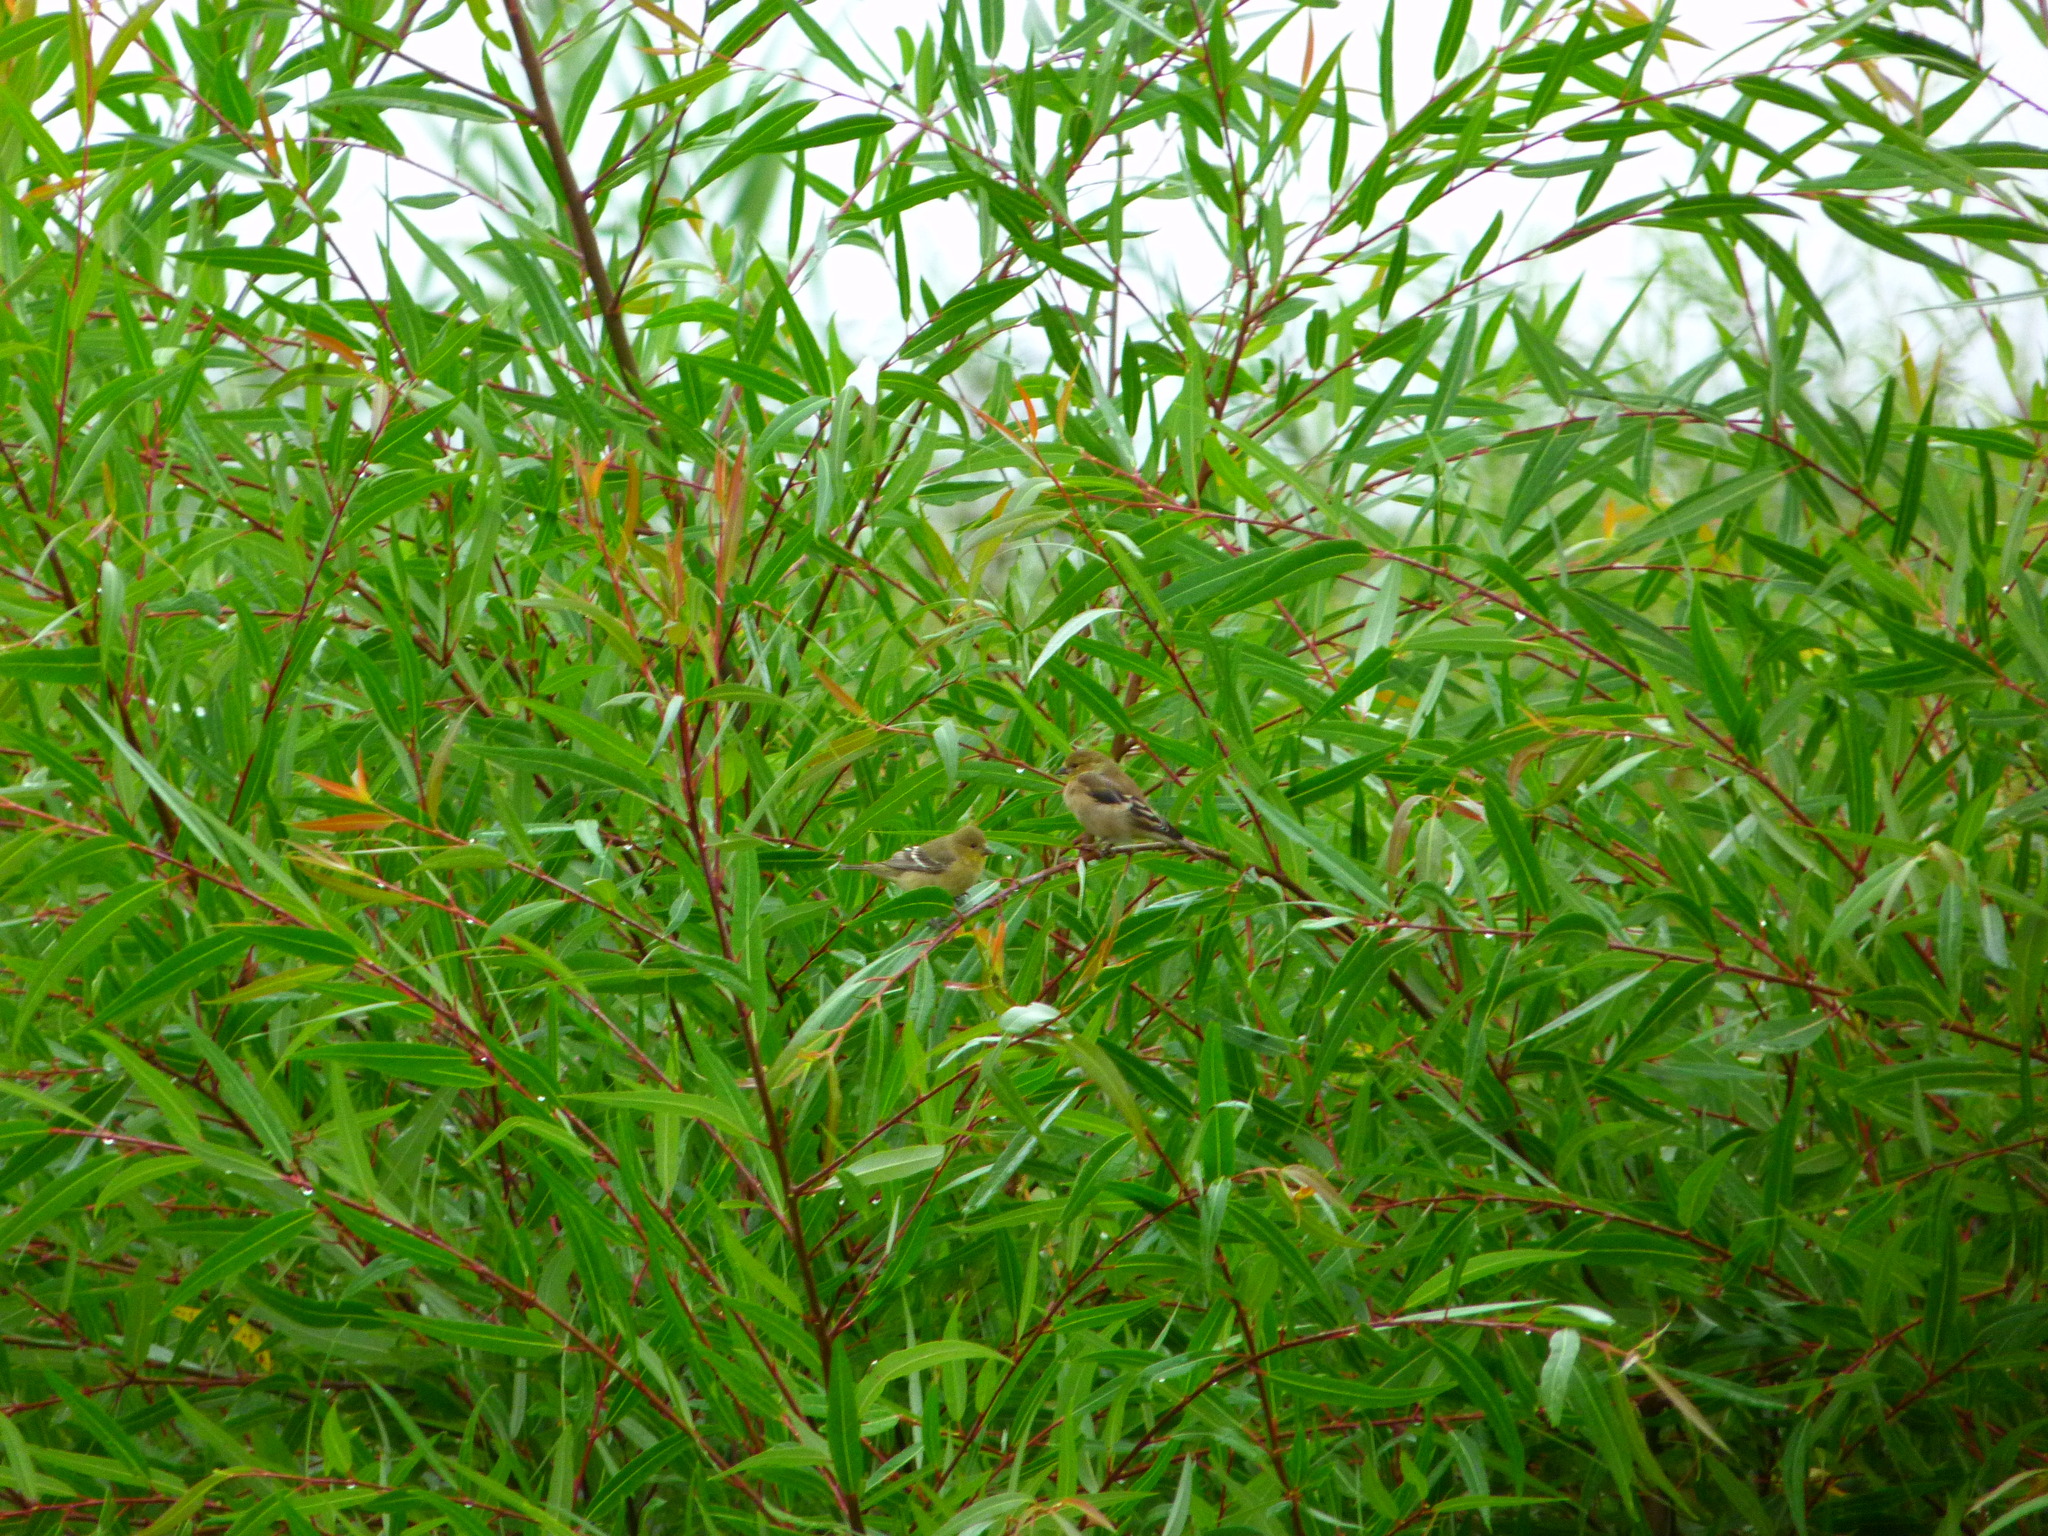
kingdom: Animalia
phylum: Chordata
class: Aves
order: Passeriformes
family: Fringillidae
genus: Spinus
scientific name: Spinus psaltria
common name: Lesser goldfinch
